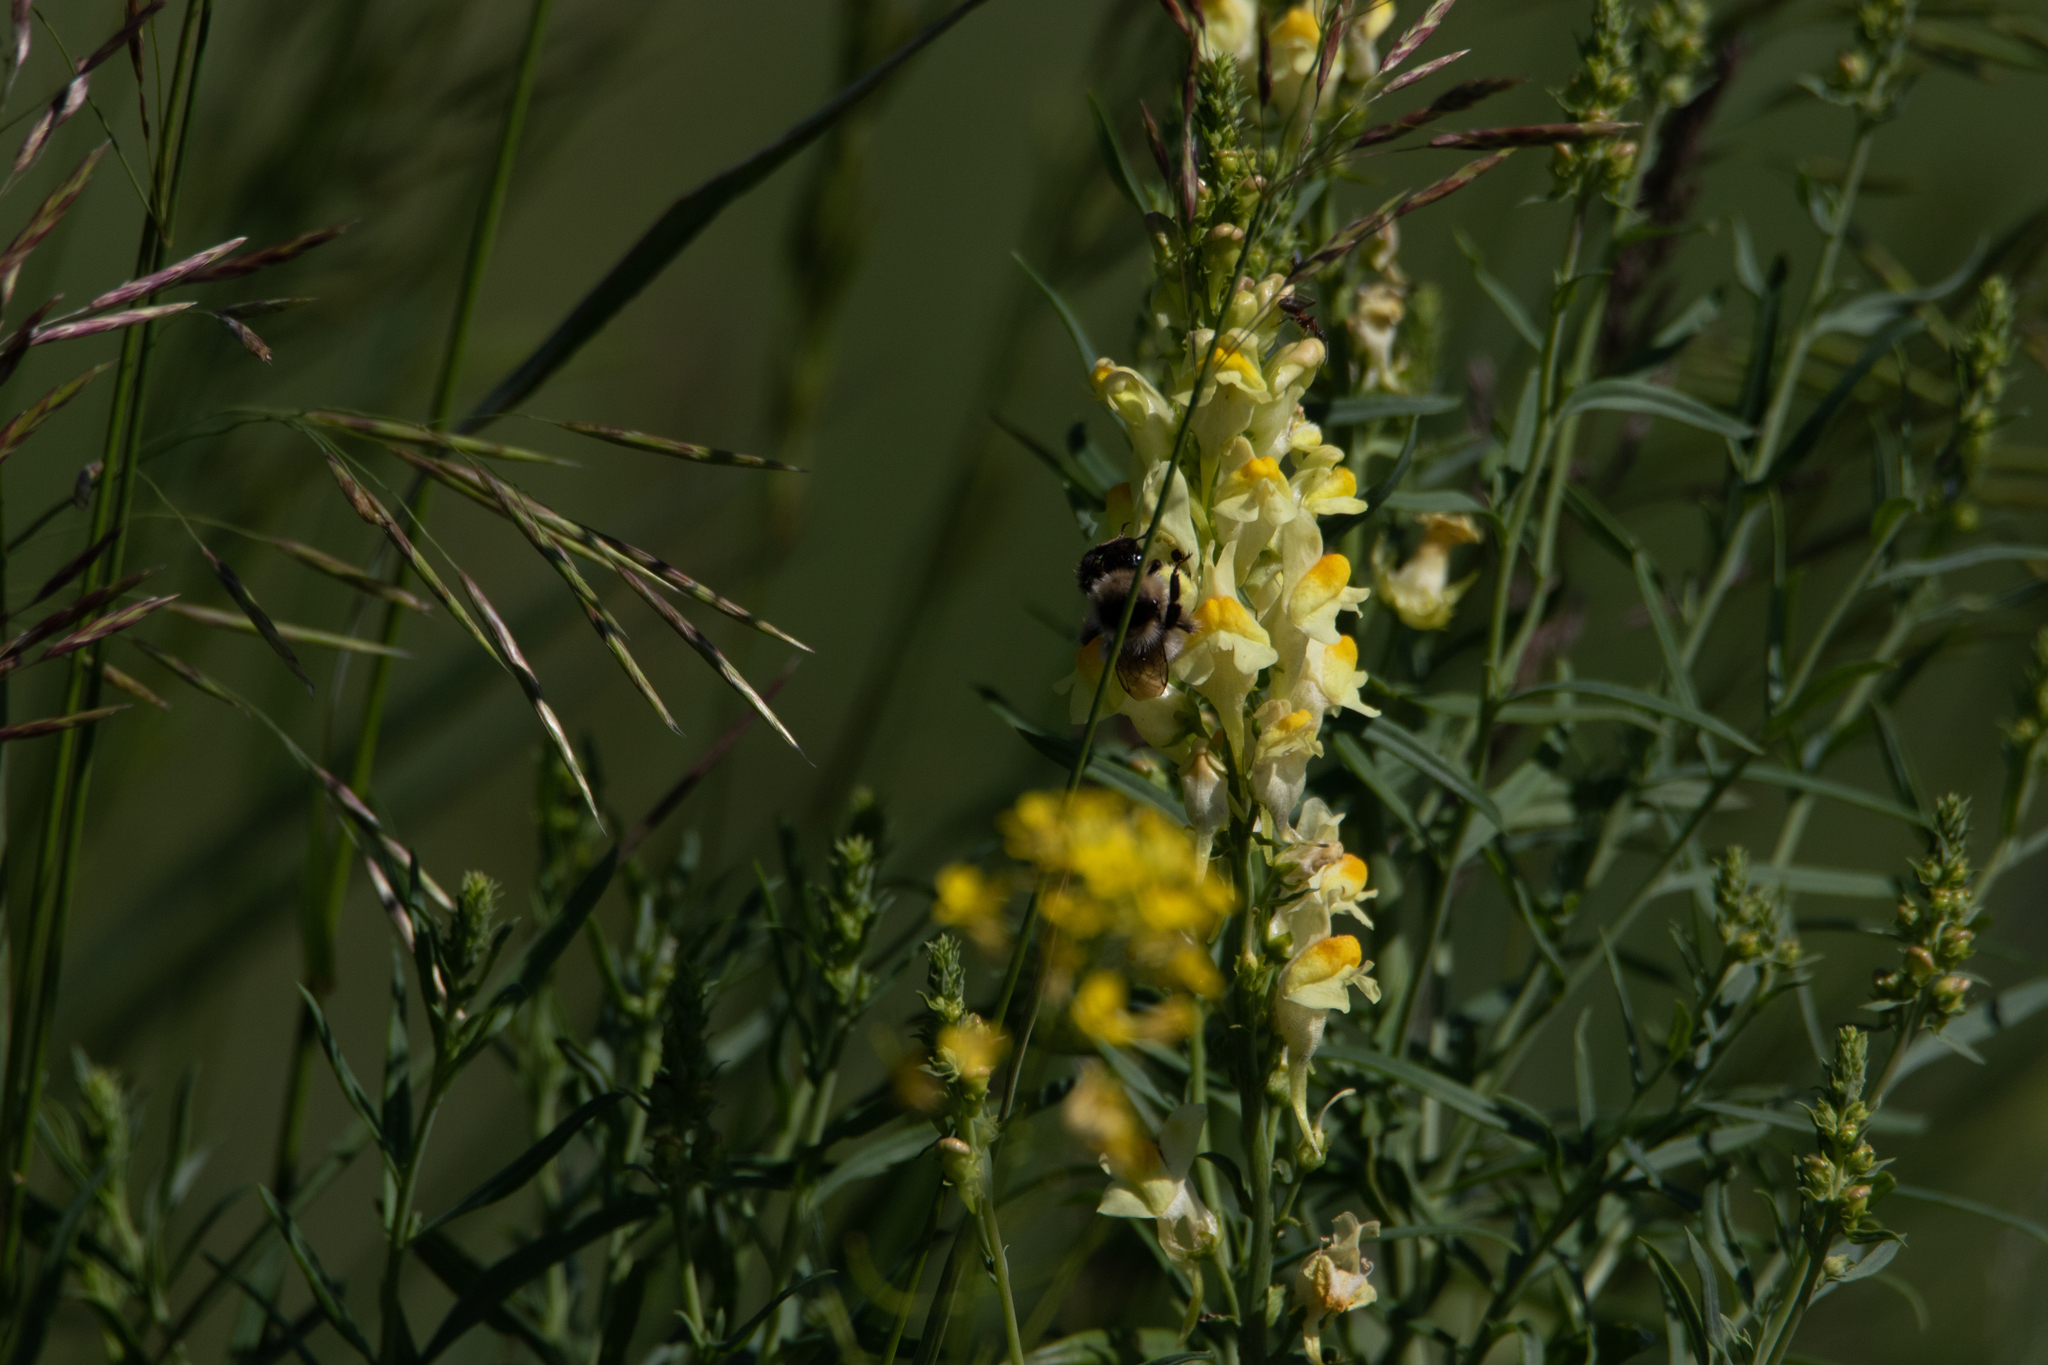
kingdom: Plantae
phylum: Tracheophyta
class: Magnoliopsida
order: Lamiales
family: Plantaginaceae
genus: Linaria
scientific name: Linaria vulgaris
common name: Butter and eggs
